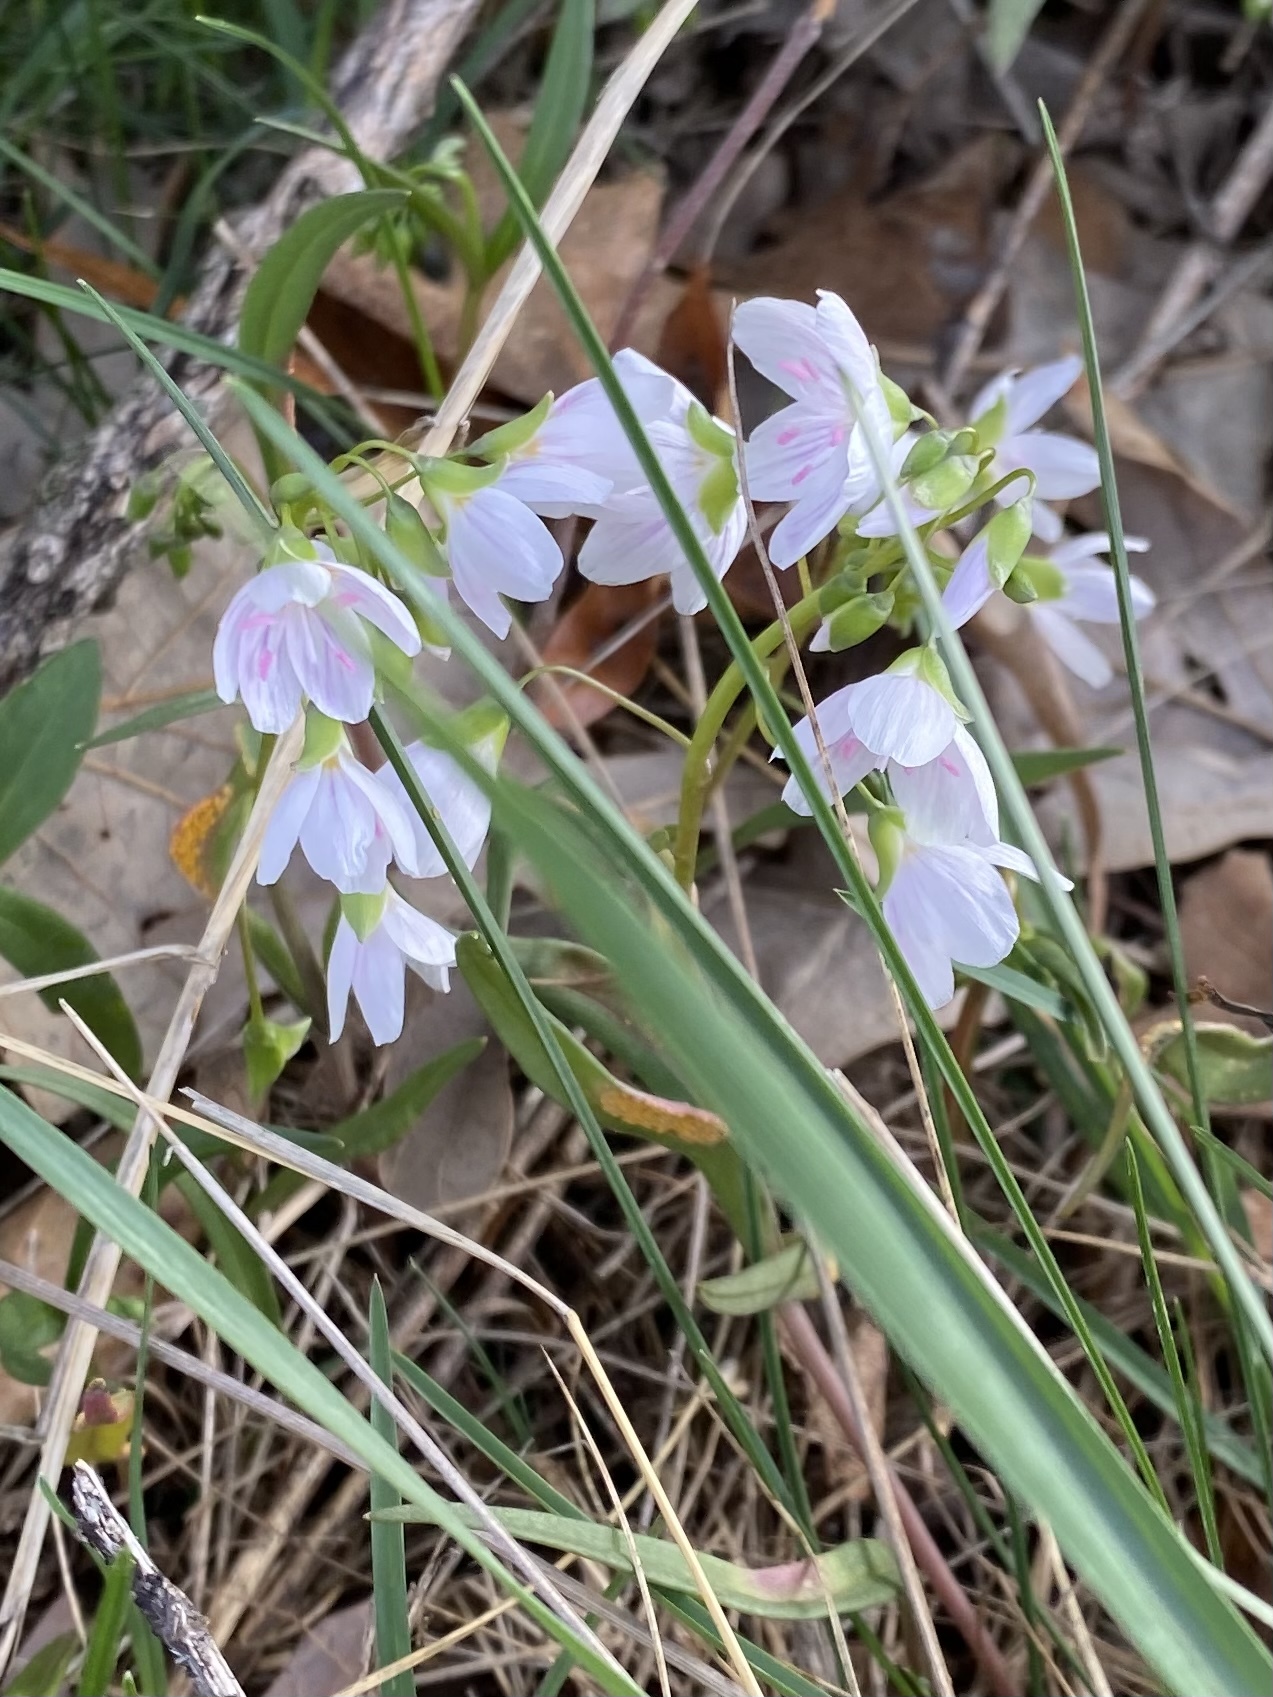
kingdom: Plantae
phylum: Tracheophyta
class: Magnoliopsida
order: Caryophyllales
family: Montiaceae
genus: Claytonia
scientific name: Claytonia virginica
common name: Virginia springbeauty
